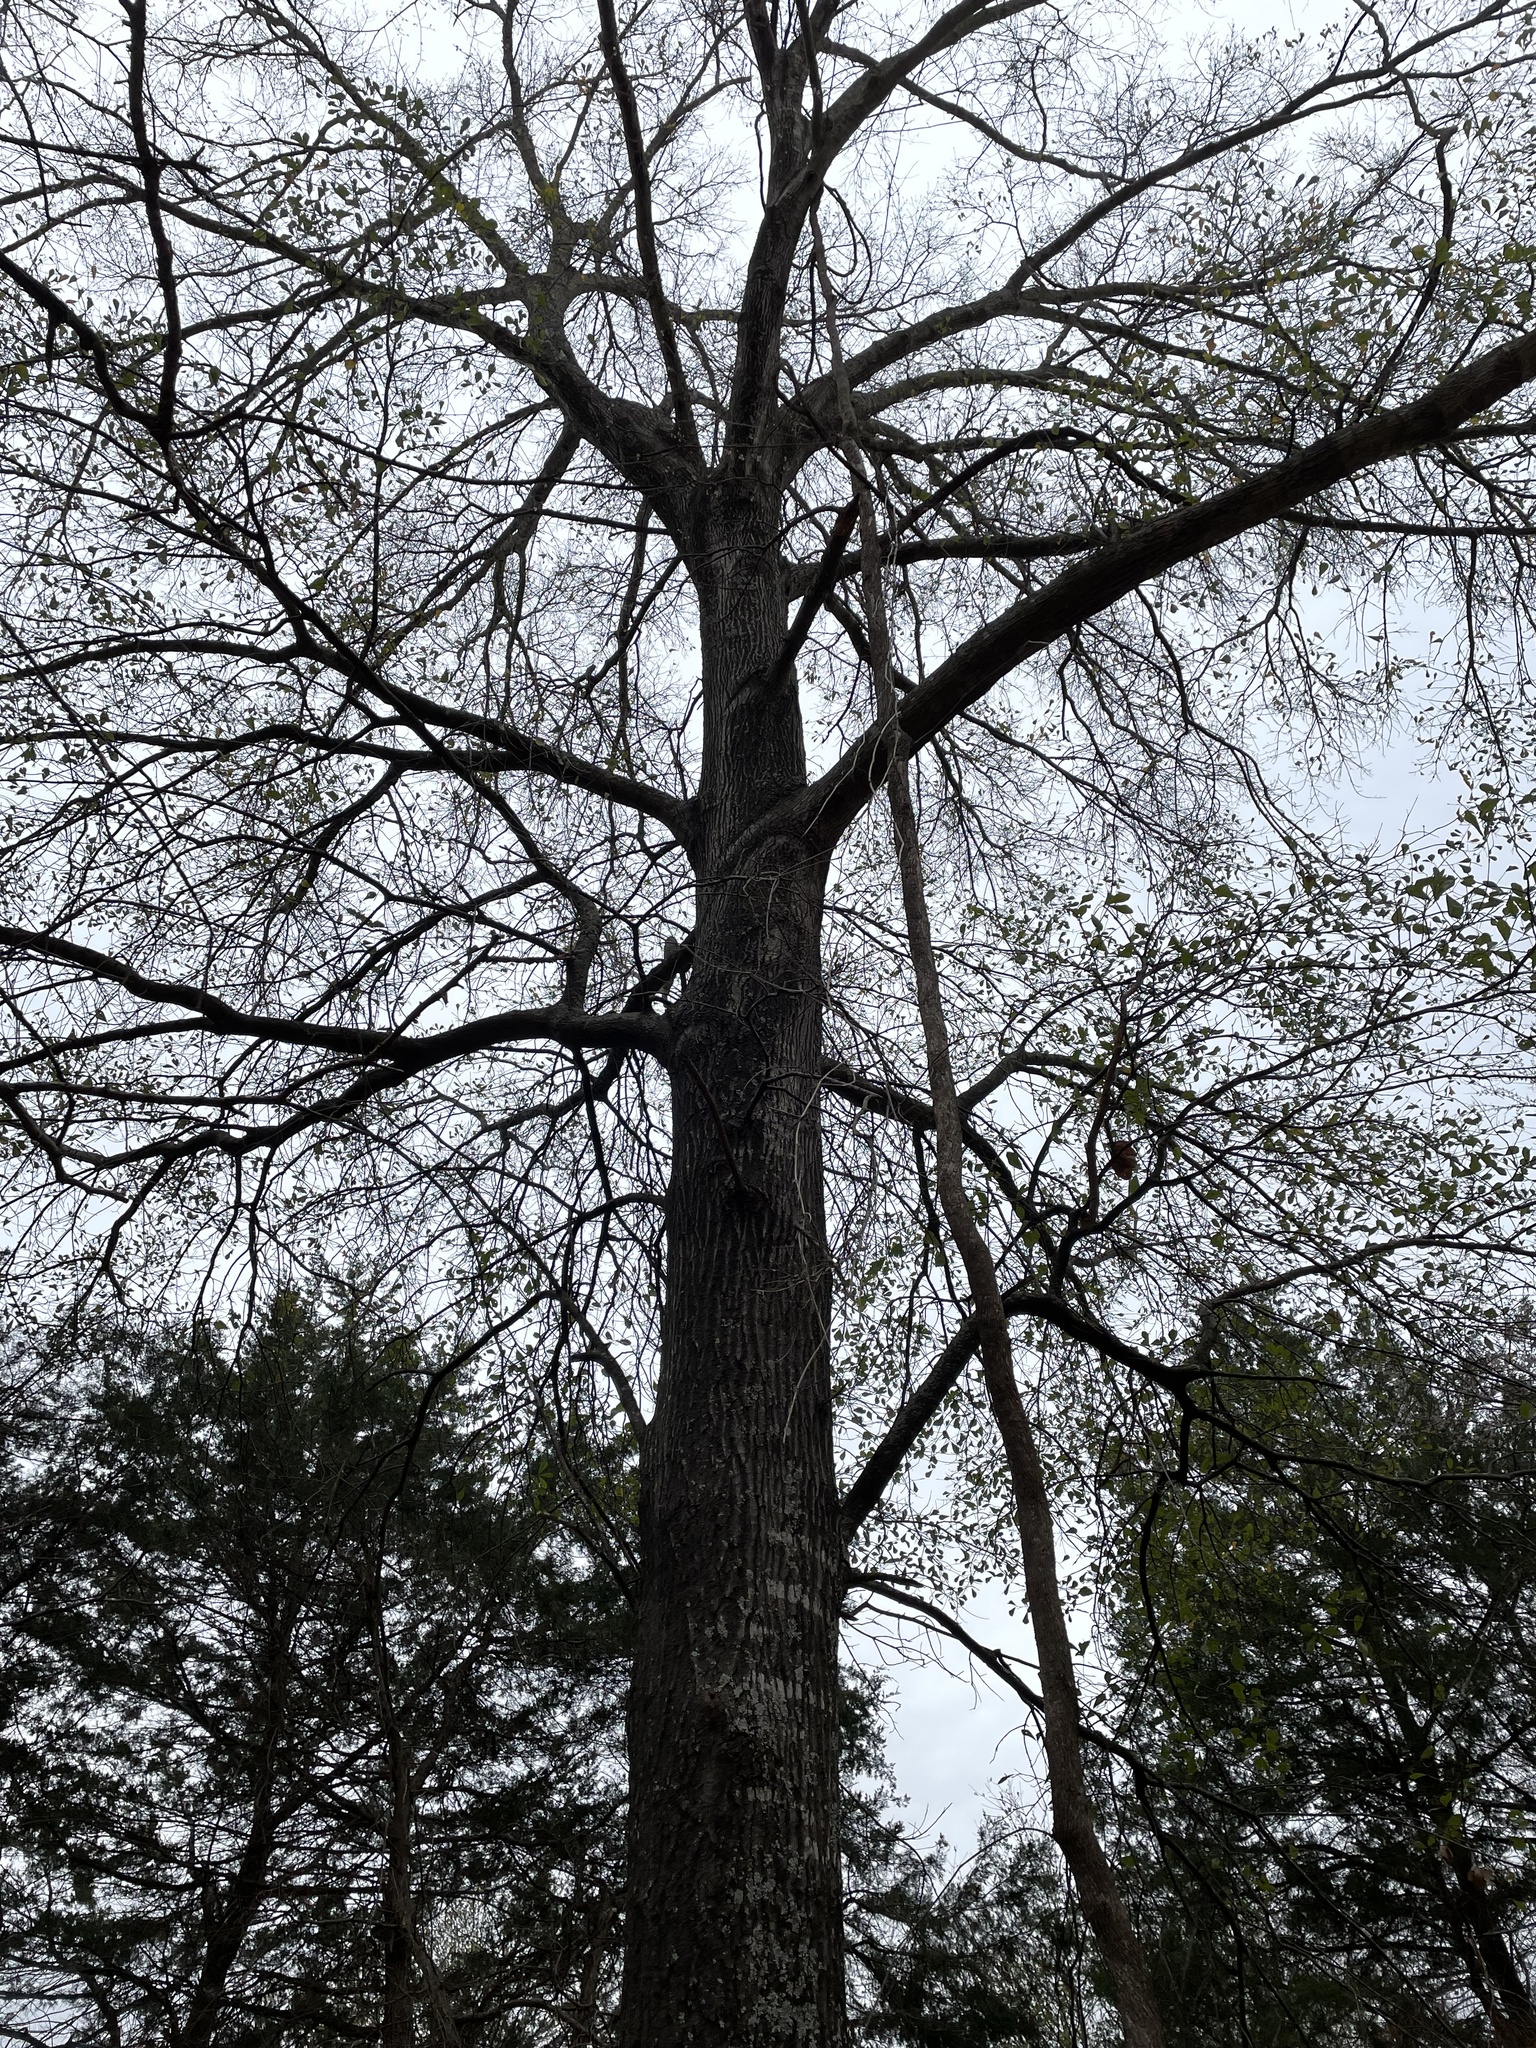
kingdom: Plantae
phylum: Tracheophyta
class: Magnoliopsida
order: Fagales
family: Fagaceae
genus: Quercus
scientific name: Quercus nigra
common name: Water oak
